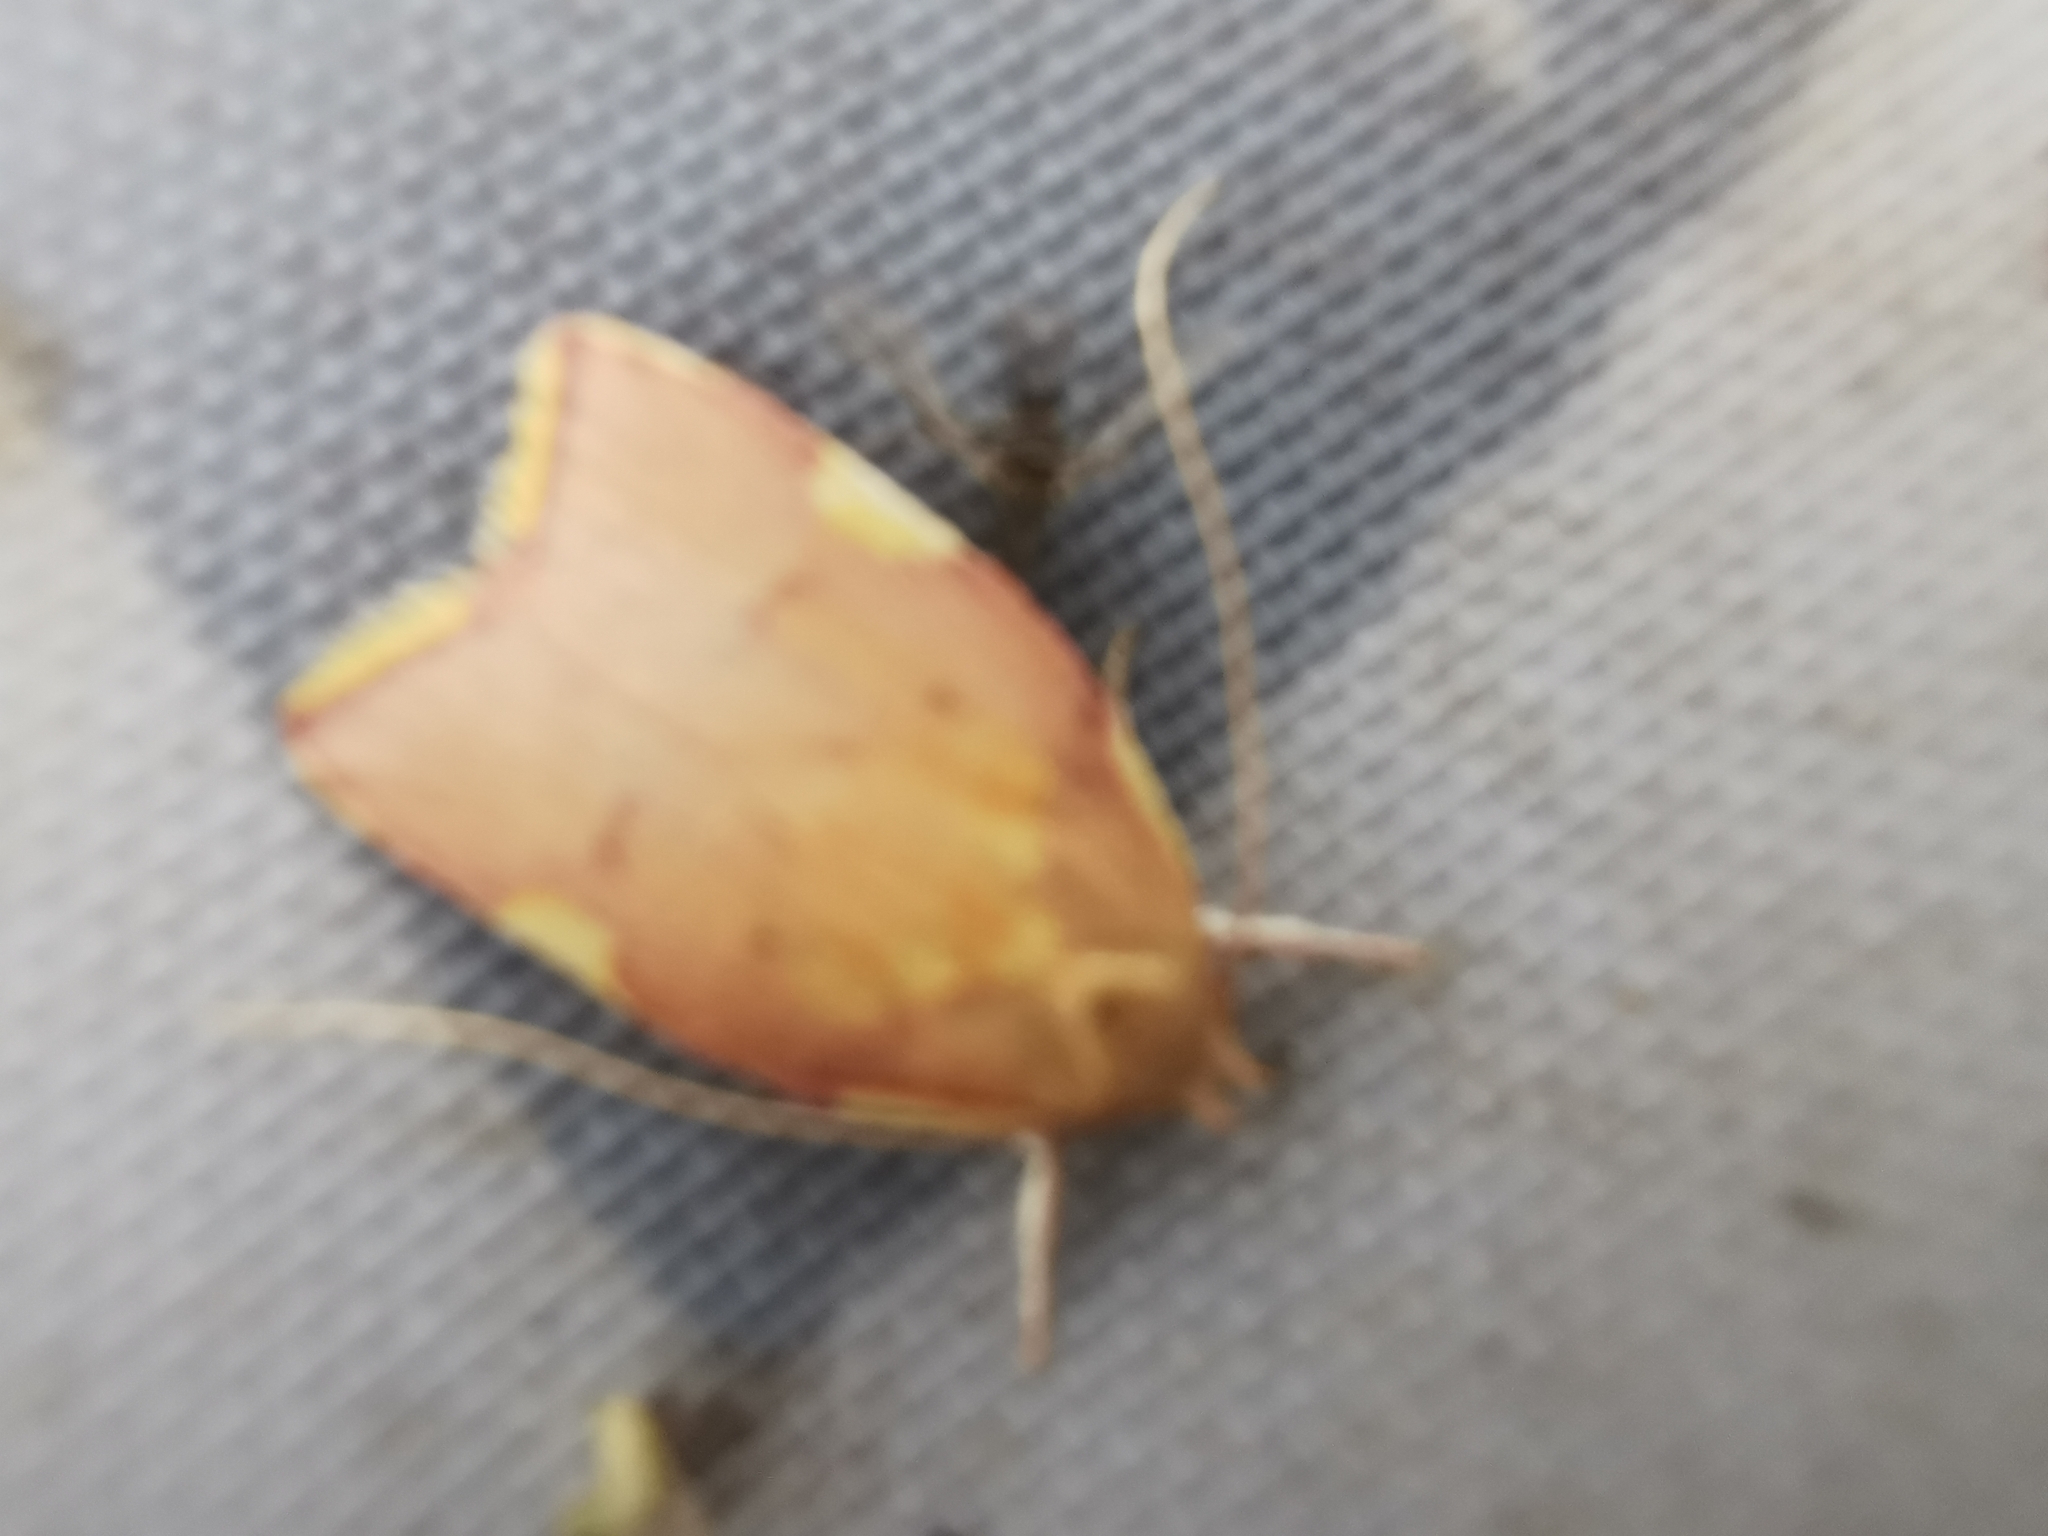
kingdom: Animalia
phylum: Arthropoda
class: Insecta
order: Lepidoptera
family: Peleopodidae
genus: Carcina
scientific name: Carcina quercana
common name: Moth
